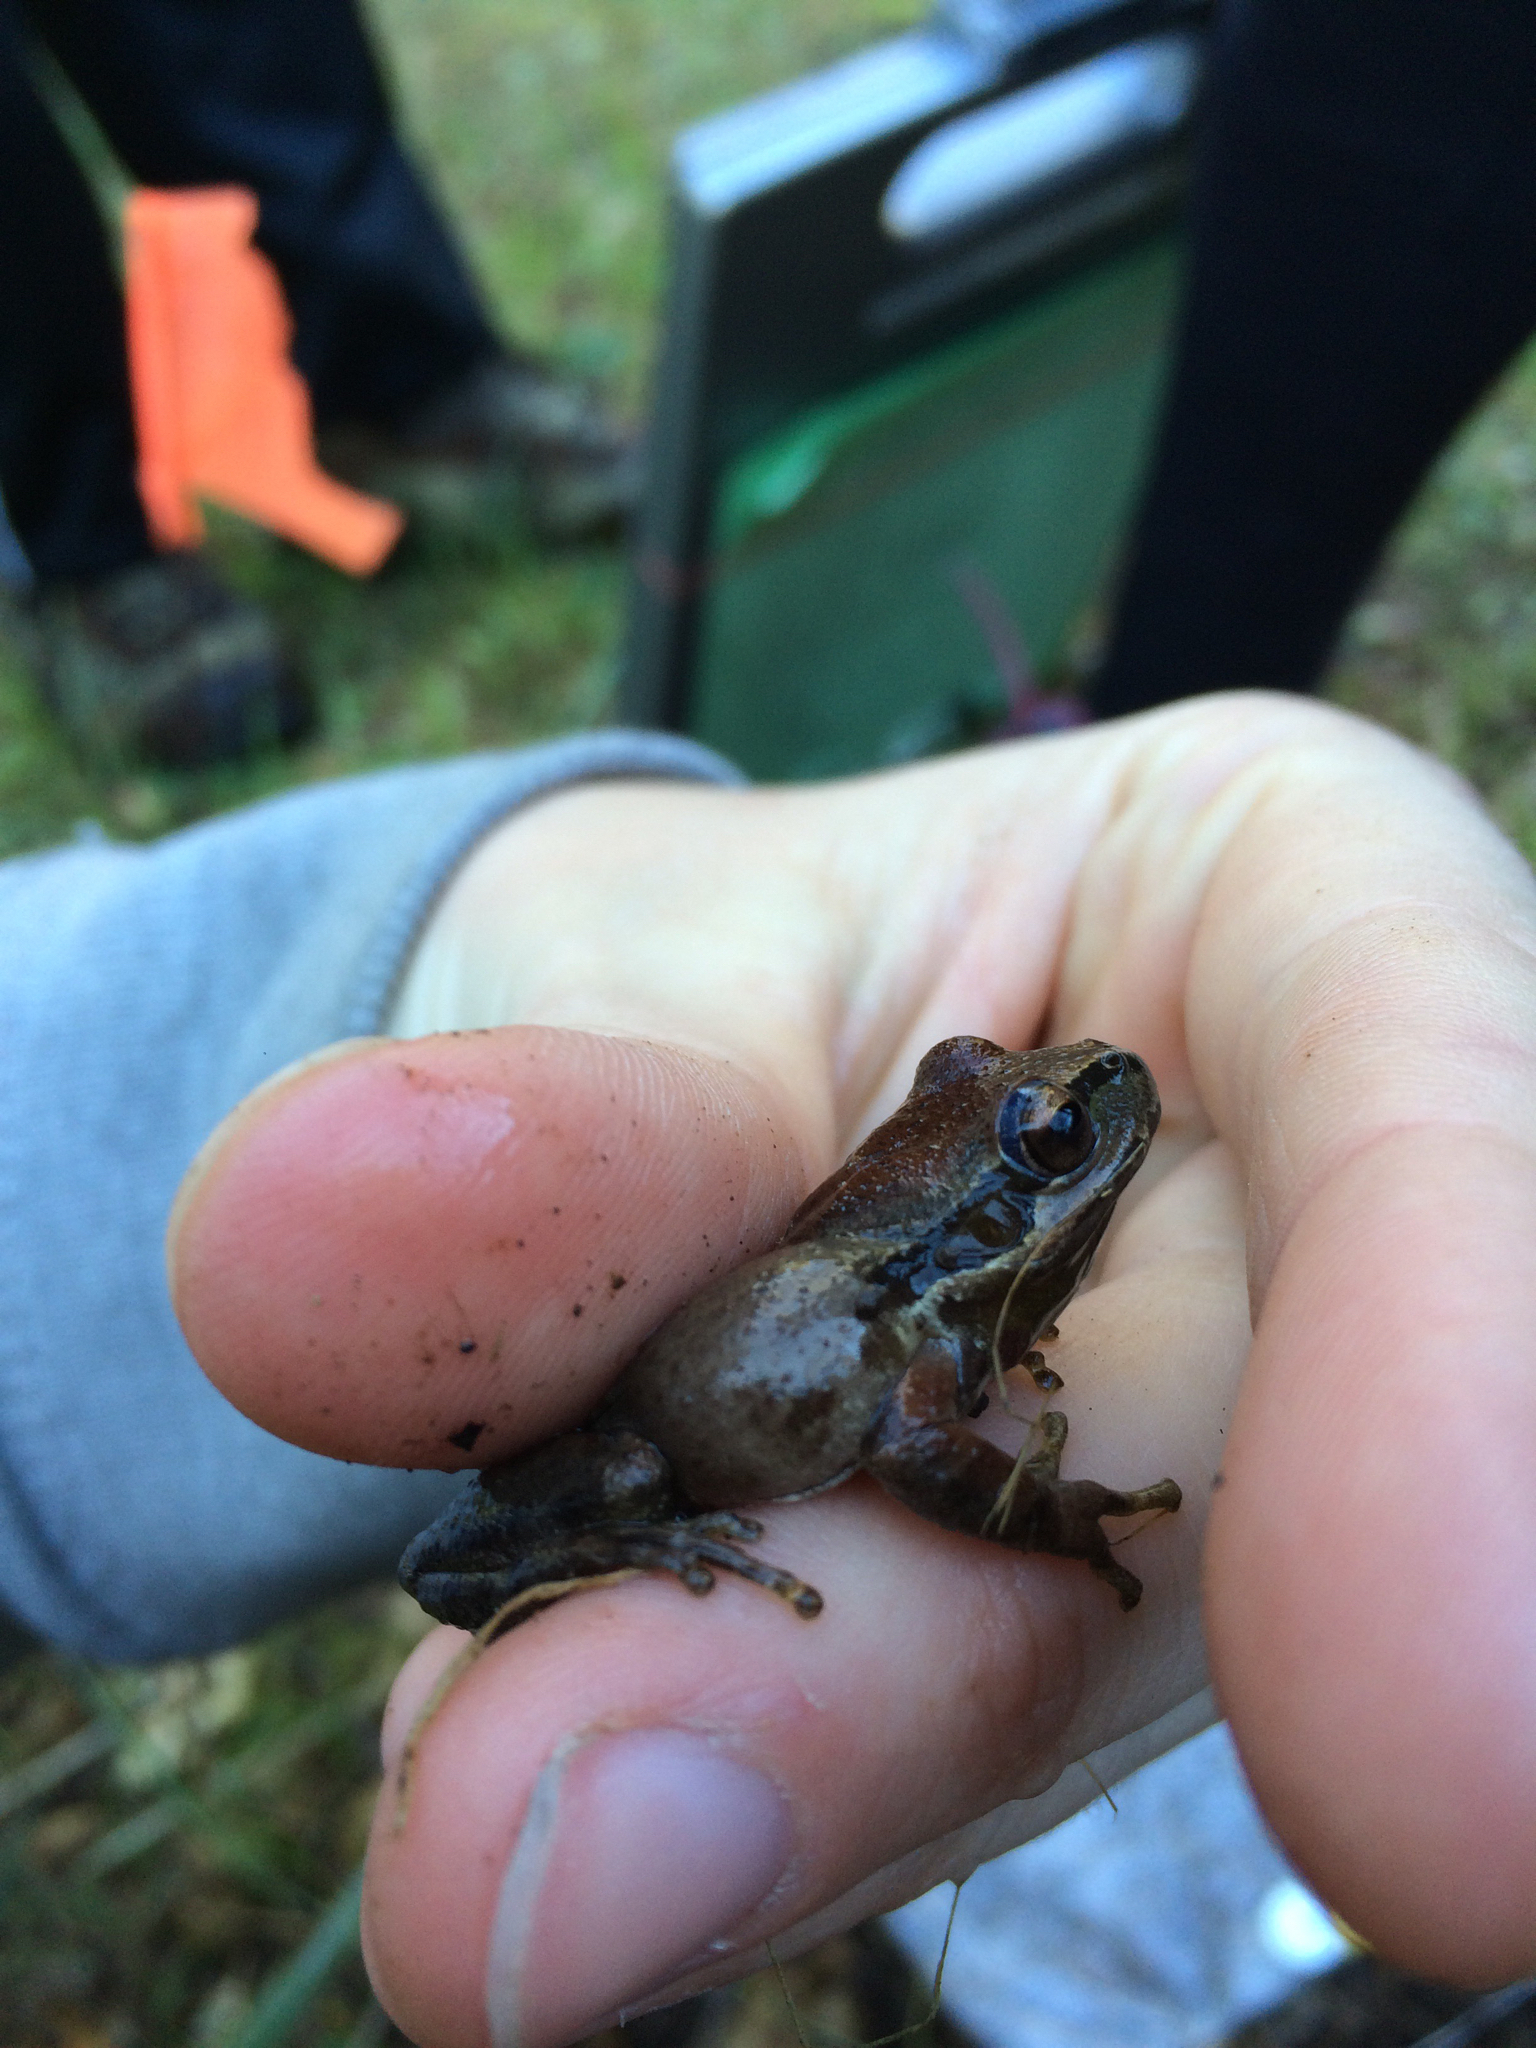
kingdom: Animalia
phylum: Chordata
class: Amphibia
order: Anura
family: Hylidae
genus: Pseudacris
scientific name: Pseudacris regilla
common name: Pacific chorus frog
